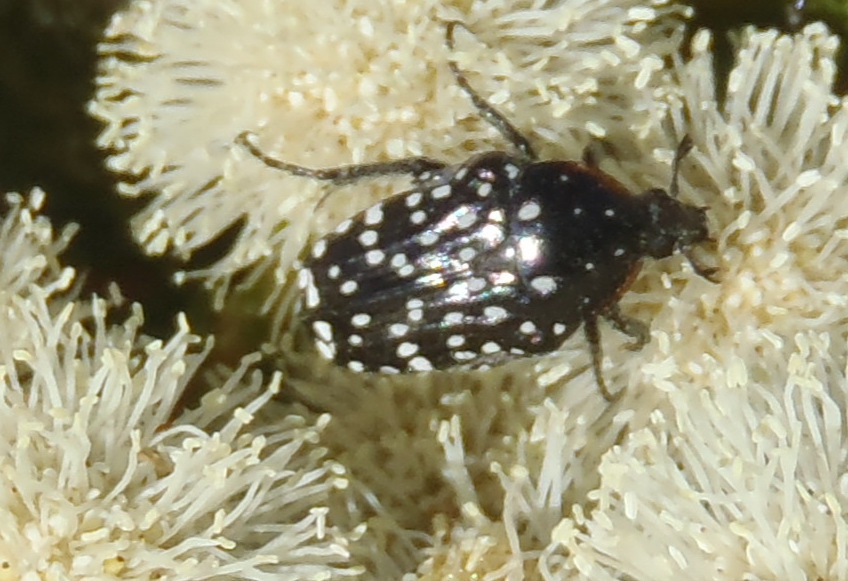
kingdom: Animalia
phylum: Arthropoda
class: Insecta
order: Coleoptera
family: Scarabaeidae
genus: Oxythyrea
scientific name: Oxythyrea
